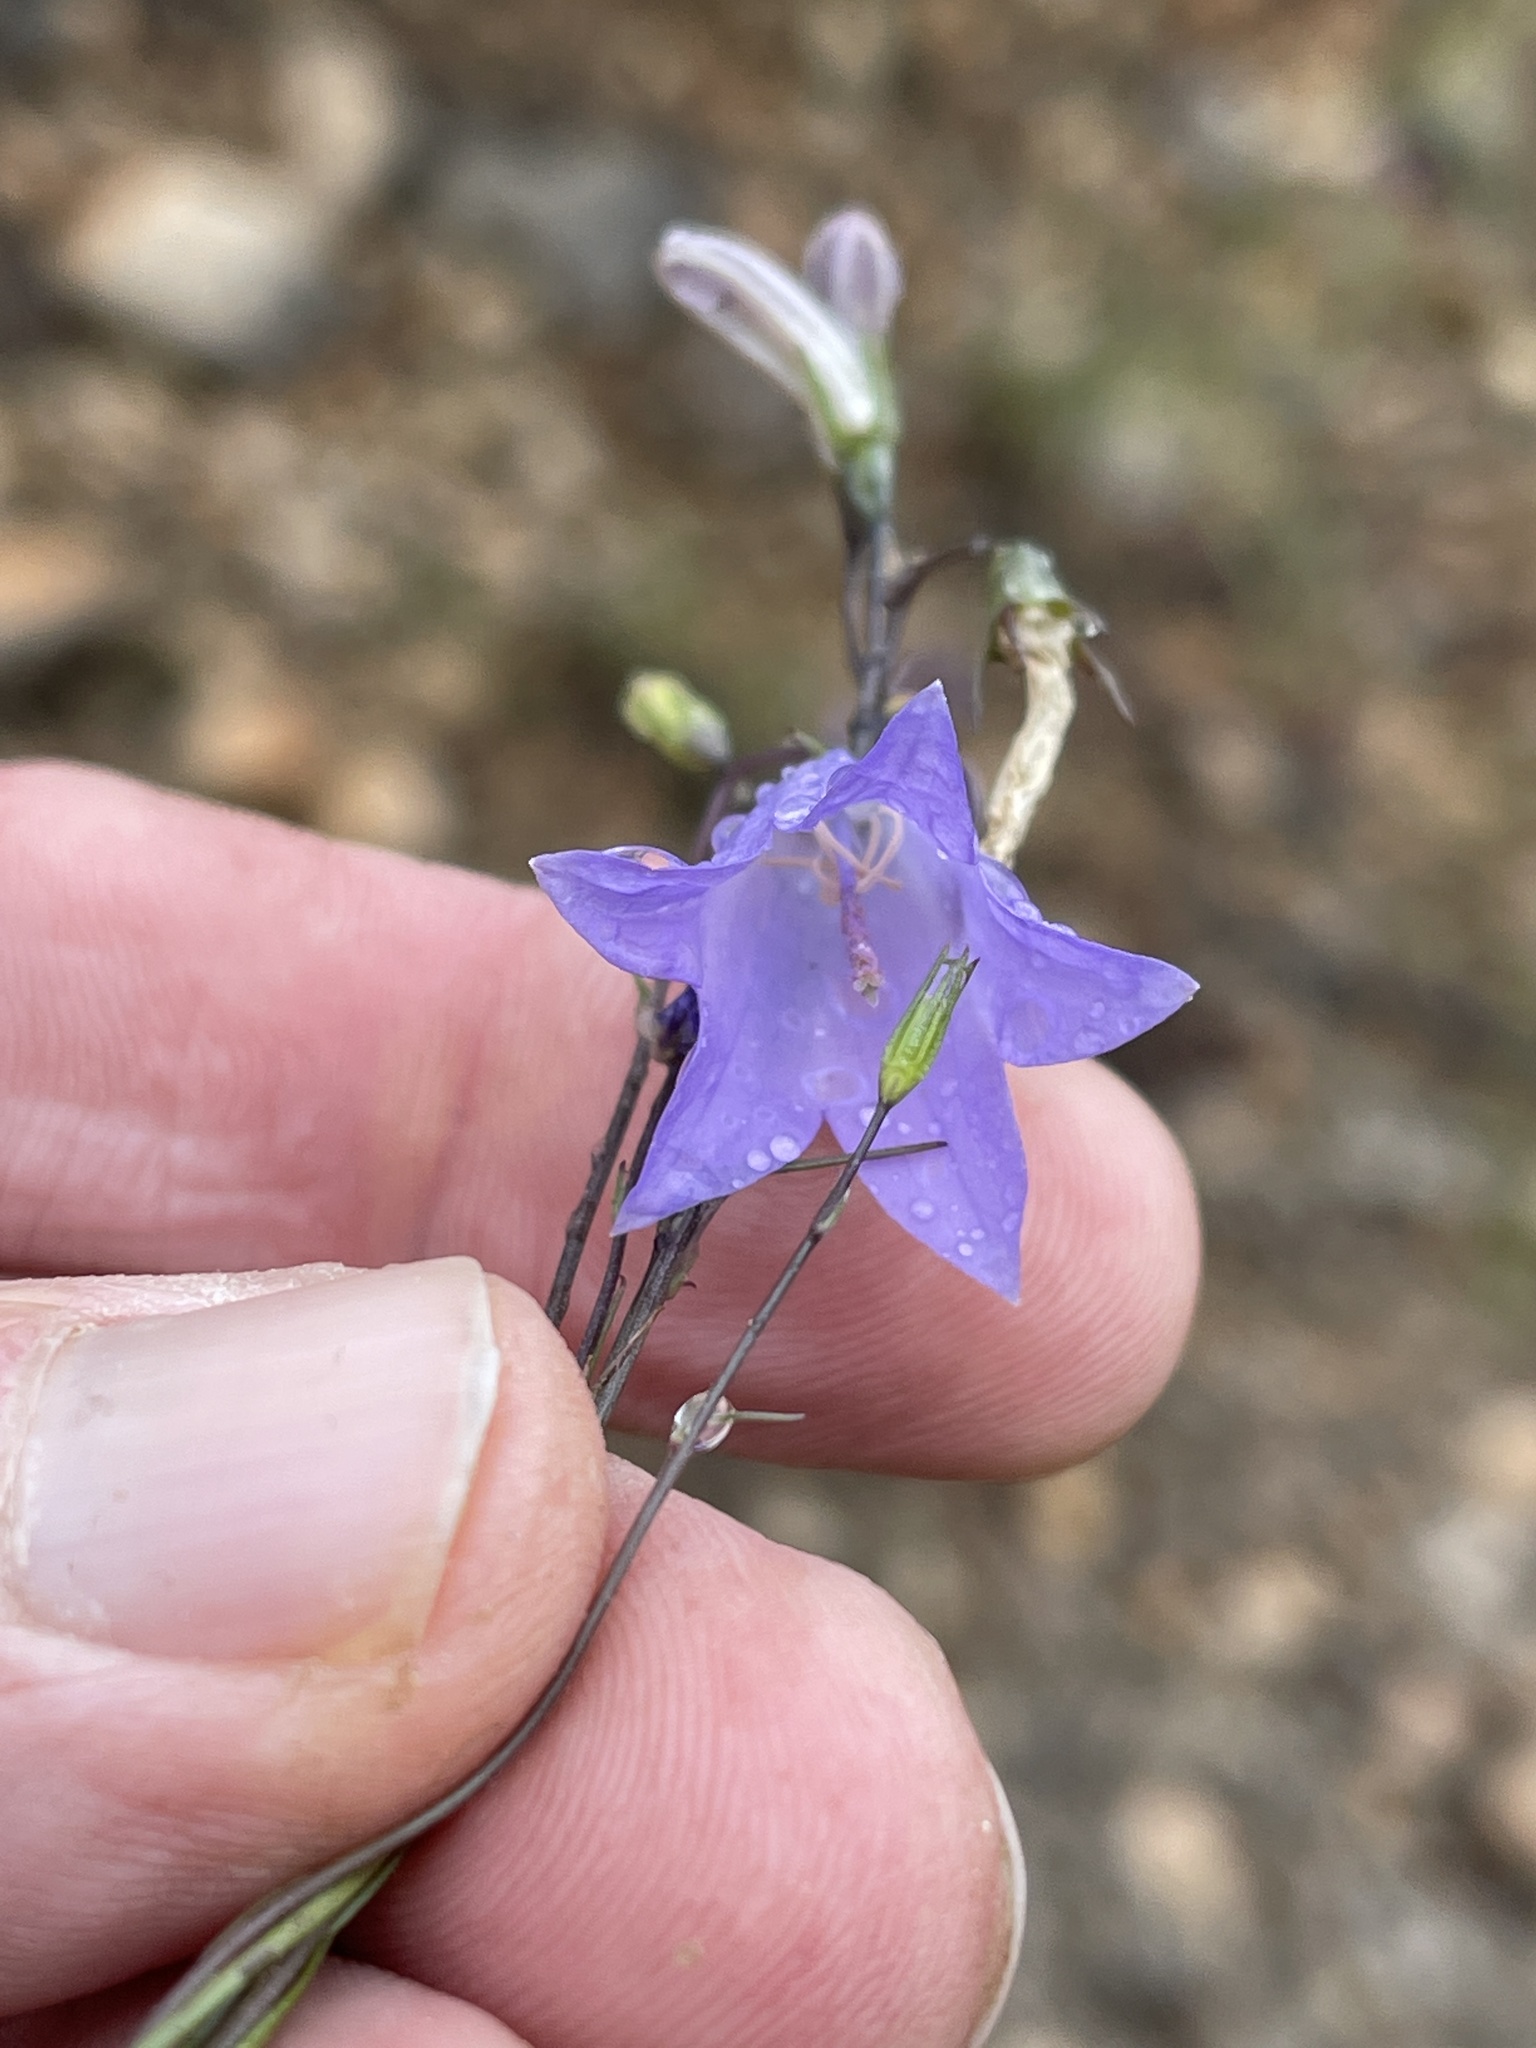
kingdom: Plantae
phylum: Tracheophyta
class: Magnoliopsida
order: Asterales
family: Campanulaceae
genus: Campanula
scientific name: Campanula petiolata
